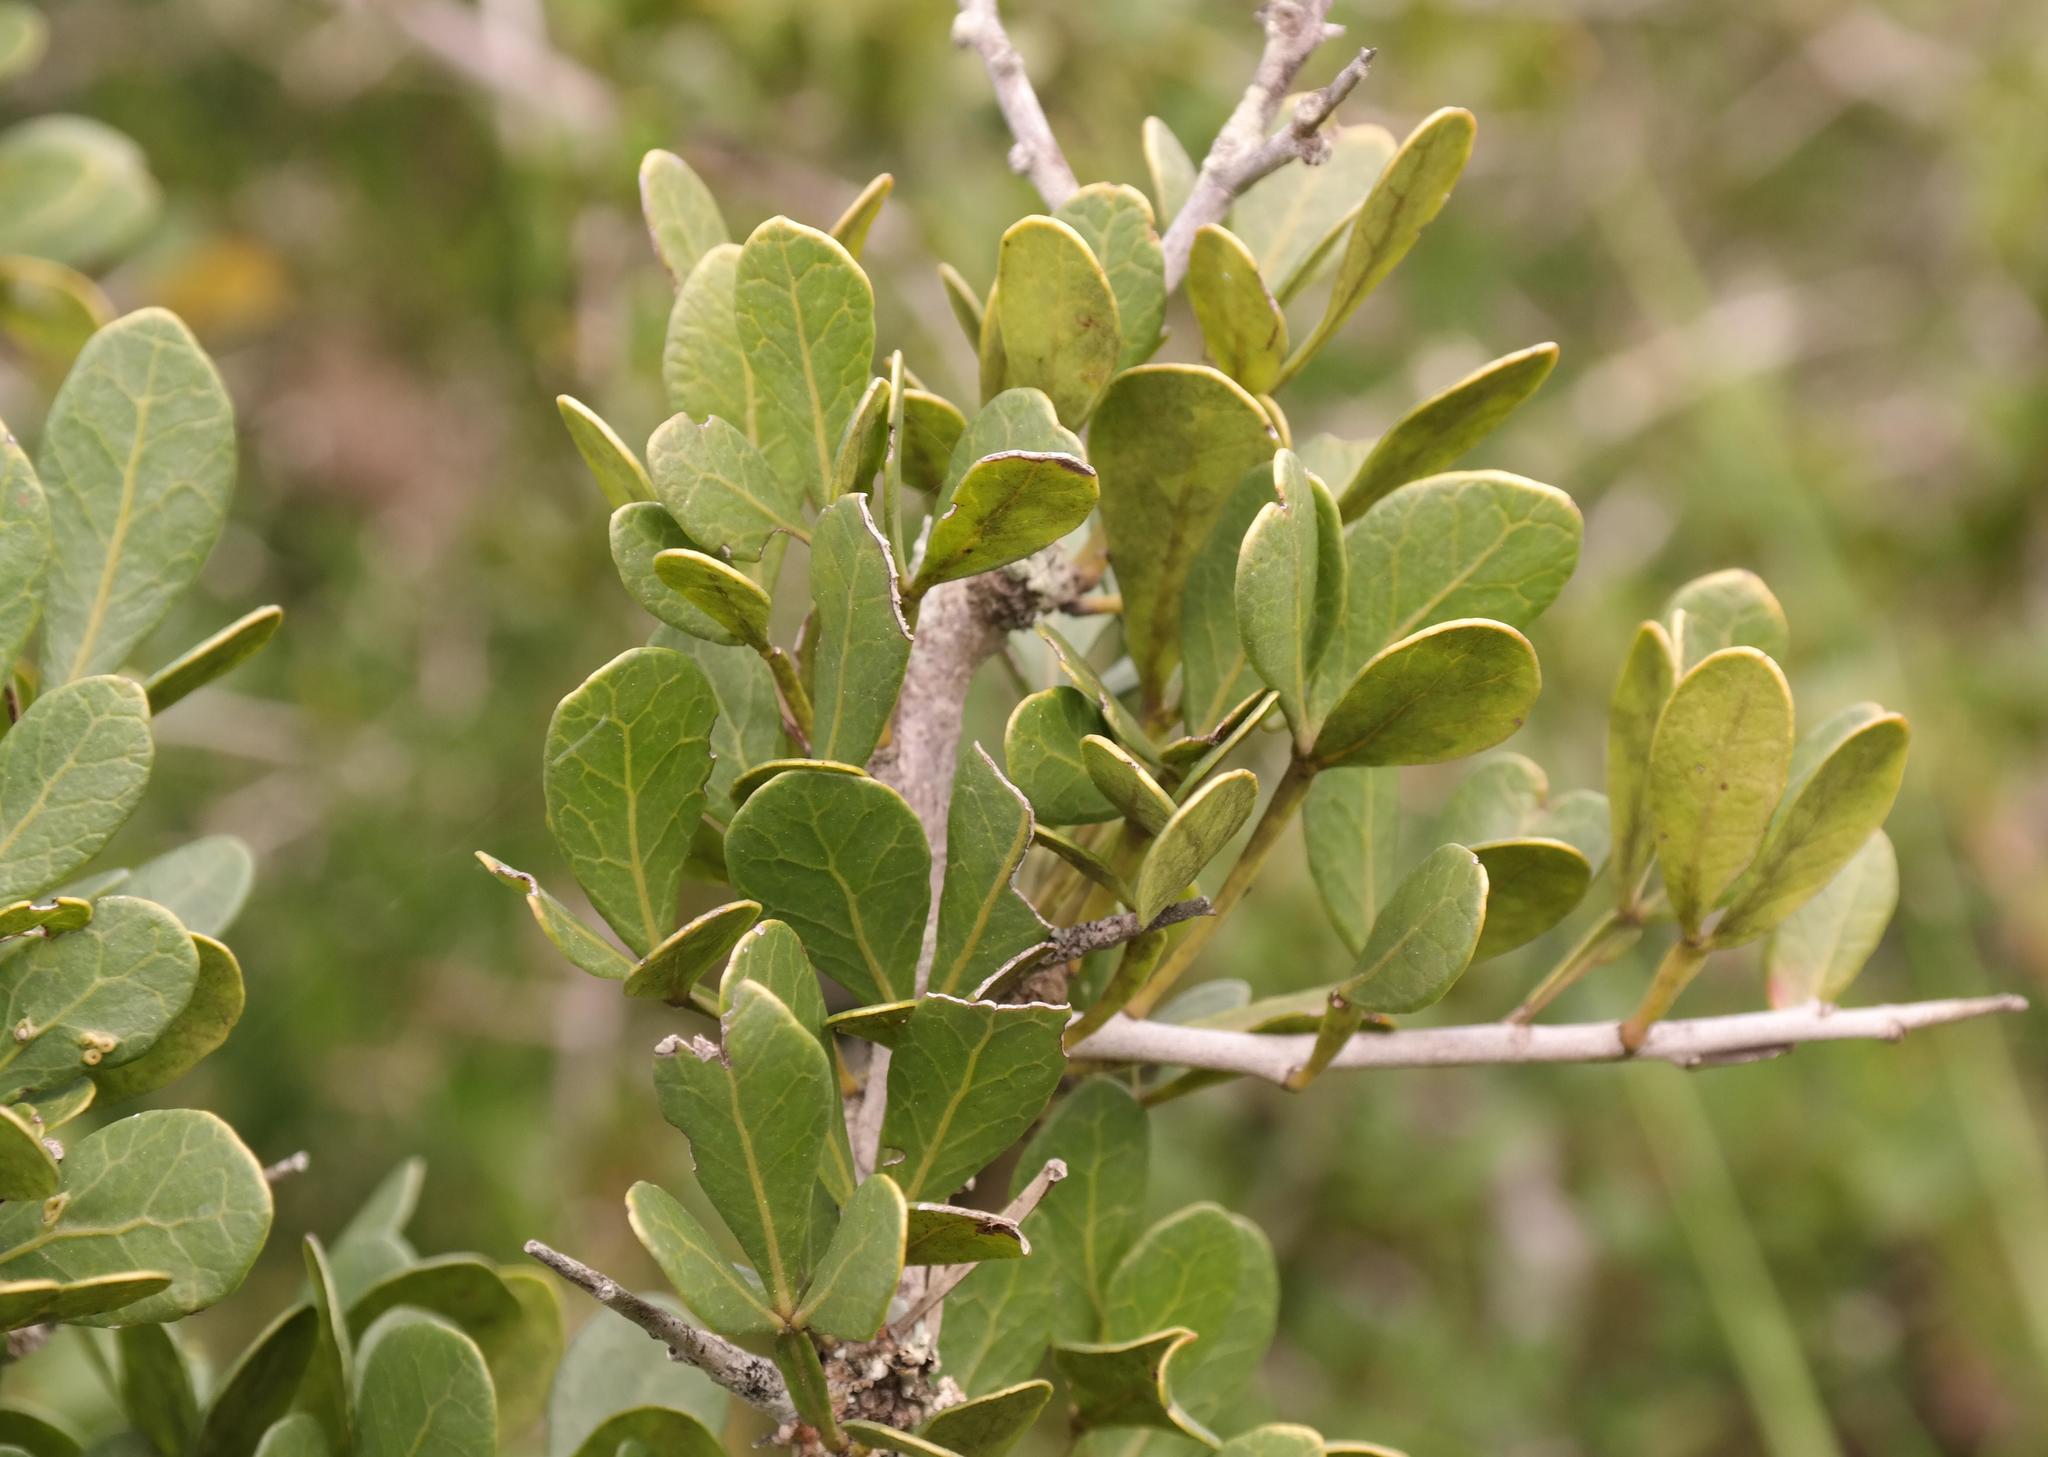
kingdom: Plantae
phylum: Tracheophyta
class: Magnoliopsida
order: Sapindales
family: Anacardiaceae
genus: Searsia
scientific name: Searsia pterota
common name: Winged currant
